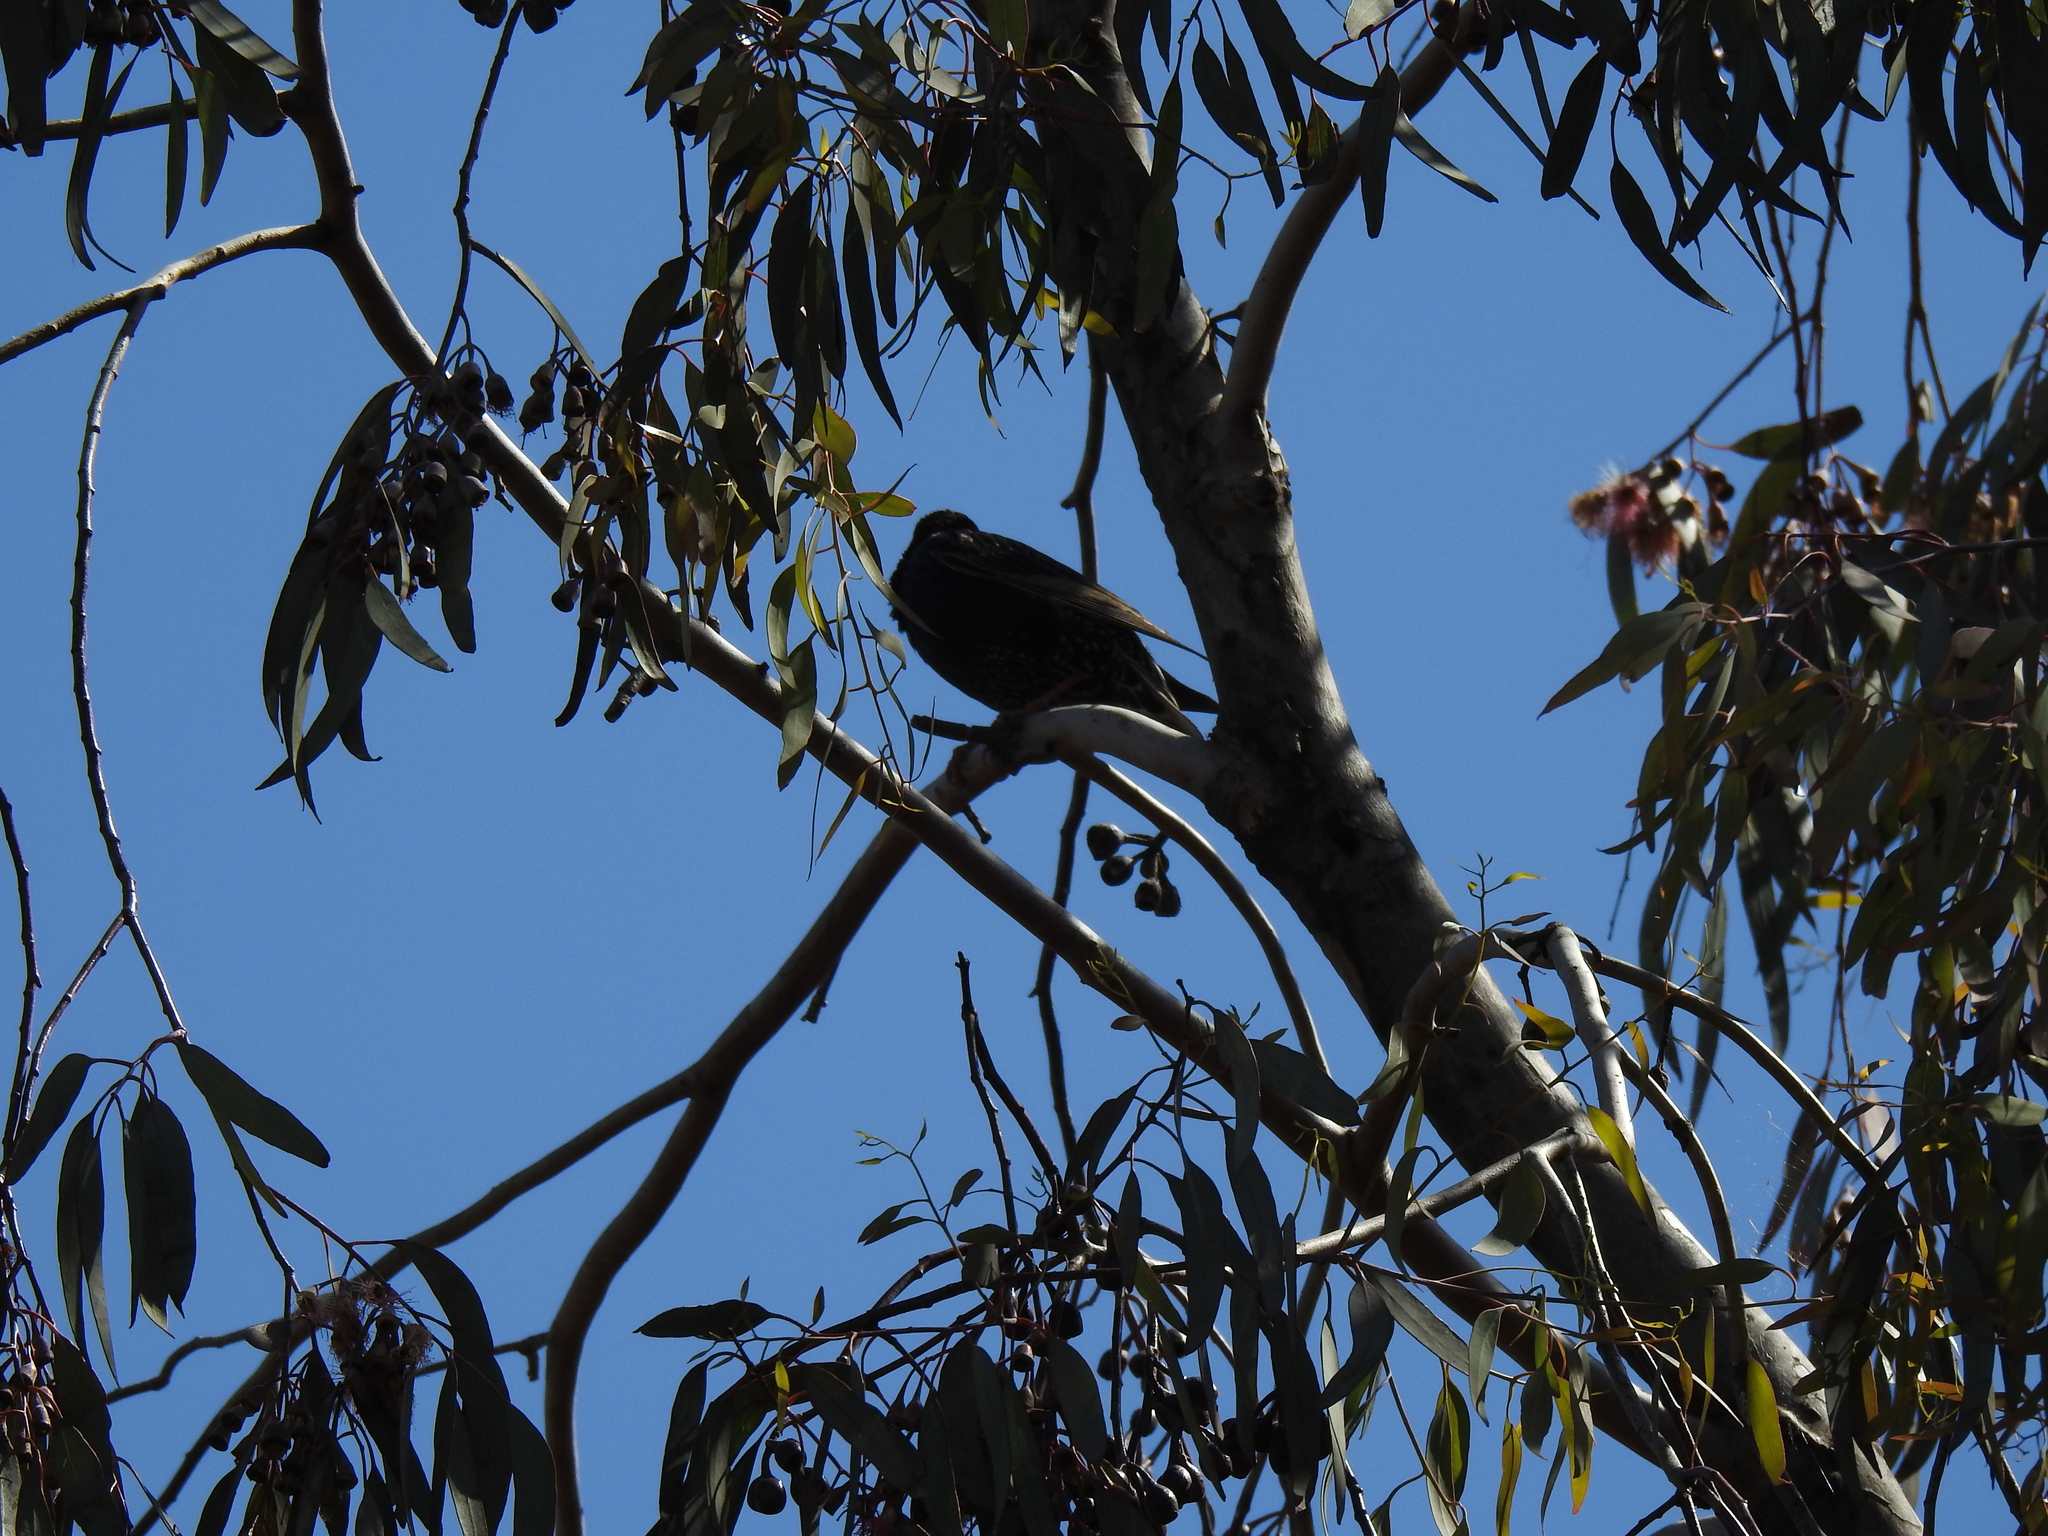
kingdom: Animalia
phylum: Chordata
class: Aves
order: Passeriformes
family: Sturnidae
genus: Sturnus
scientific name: Sturnus vulgaris
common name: Common starling
